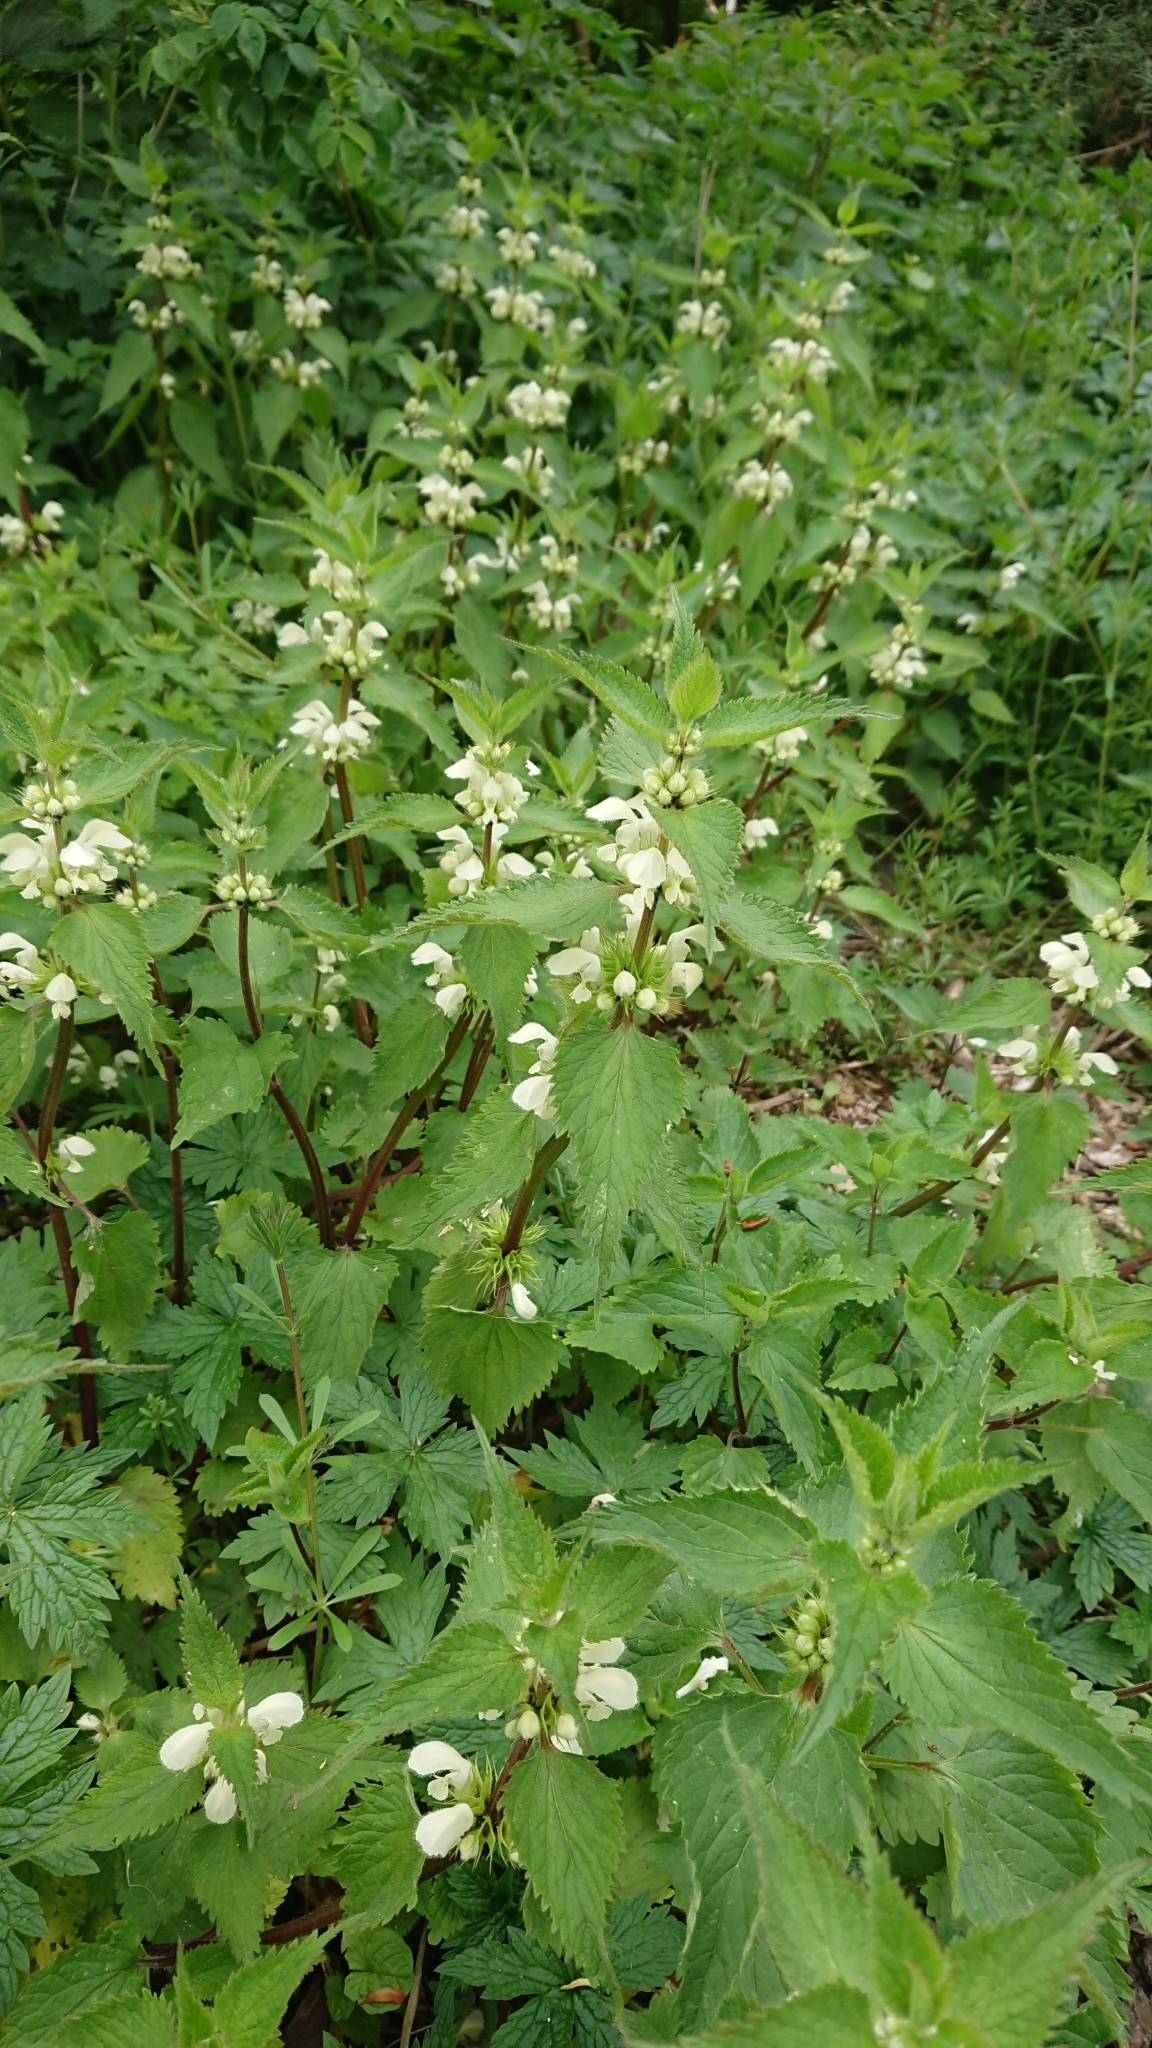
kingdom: Plantae
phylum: Tracheophyta
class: Magnoliopsida
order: Lamiales
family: Lamiaceae
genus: Lamium
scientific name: Lamium album
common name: White dead-nettle
